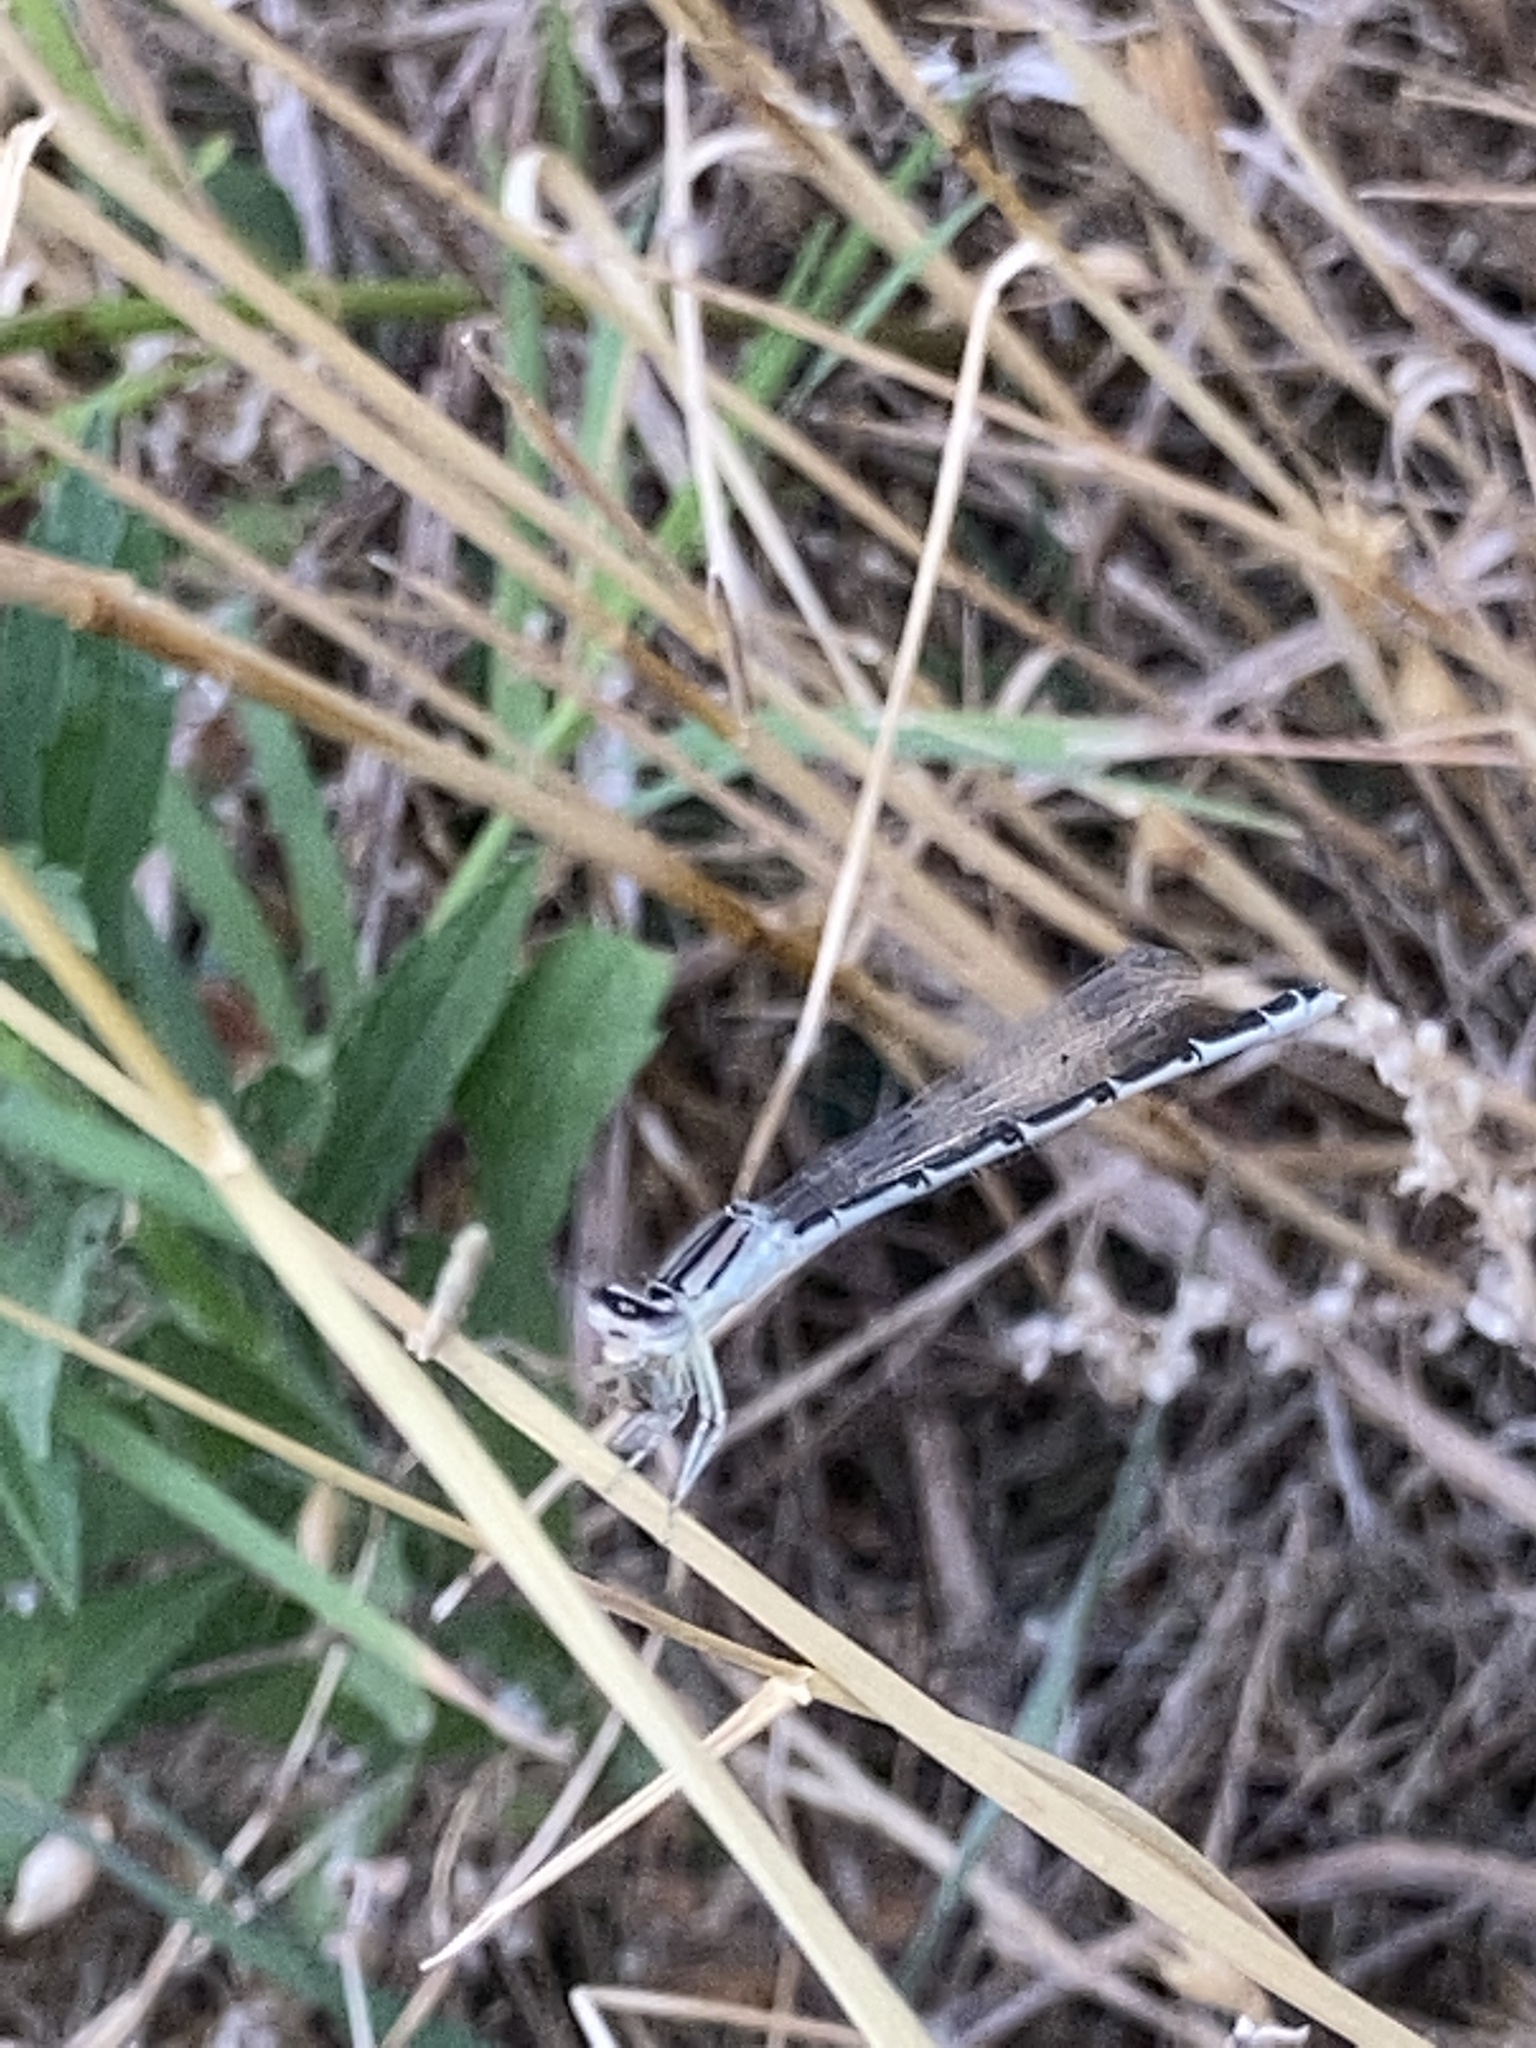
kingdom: Animalia
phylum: Arthropoda
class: Insecta
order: Odonata
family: Coenagrionidae
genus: Enallagma
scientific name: Enallagma civile
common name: Damselfly
